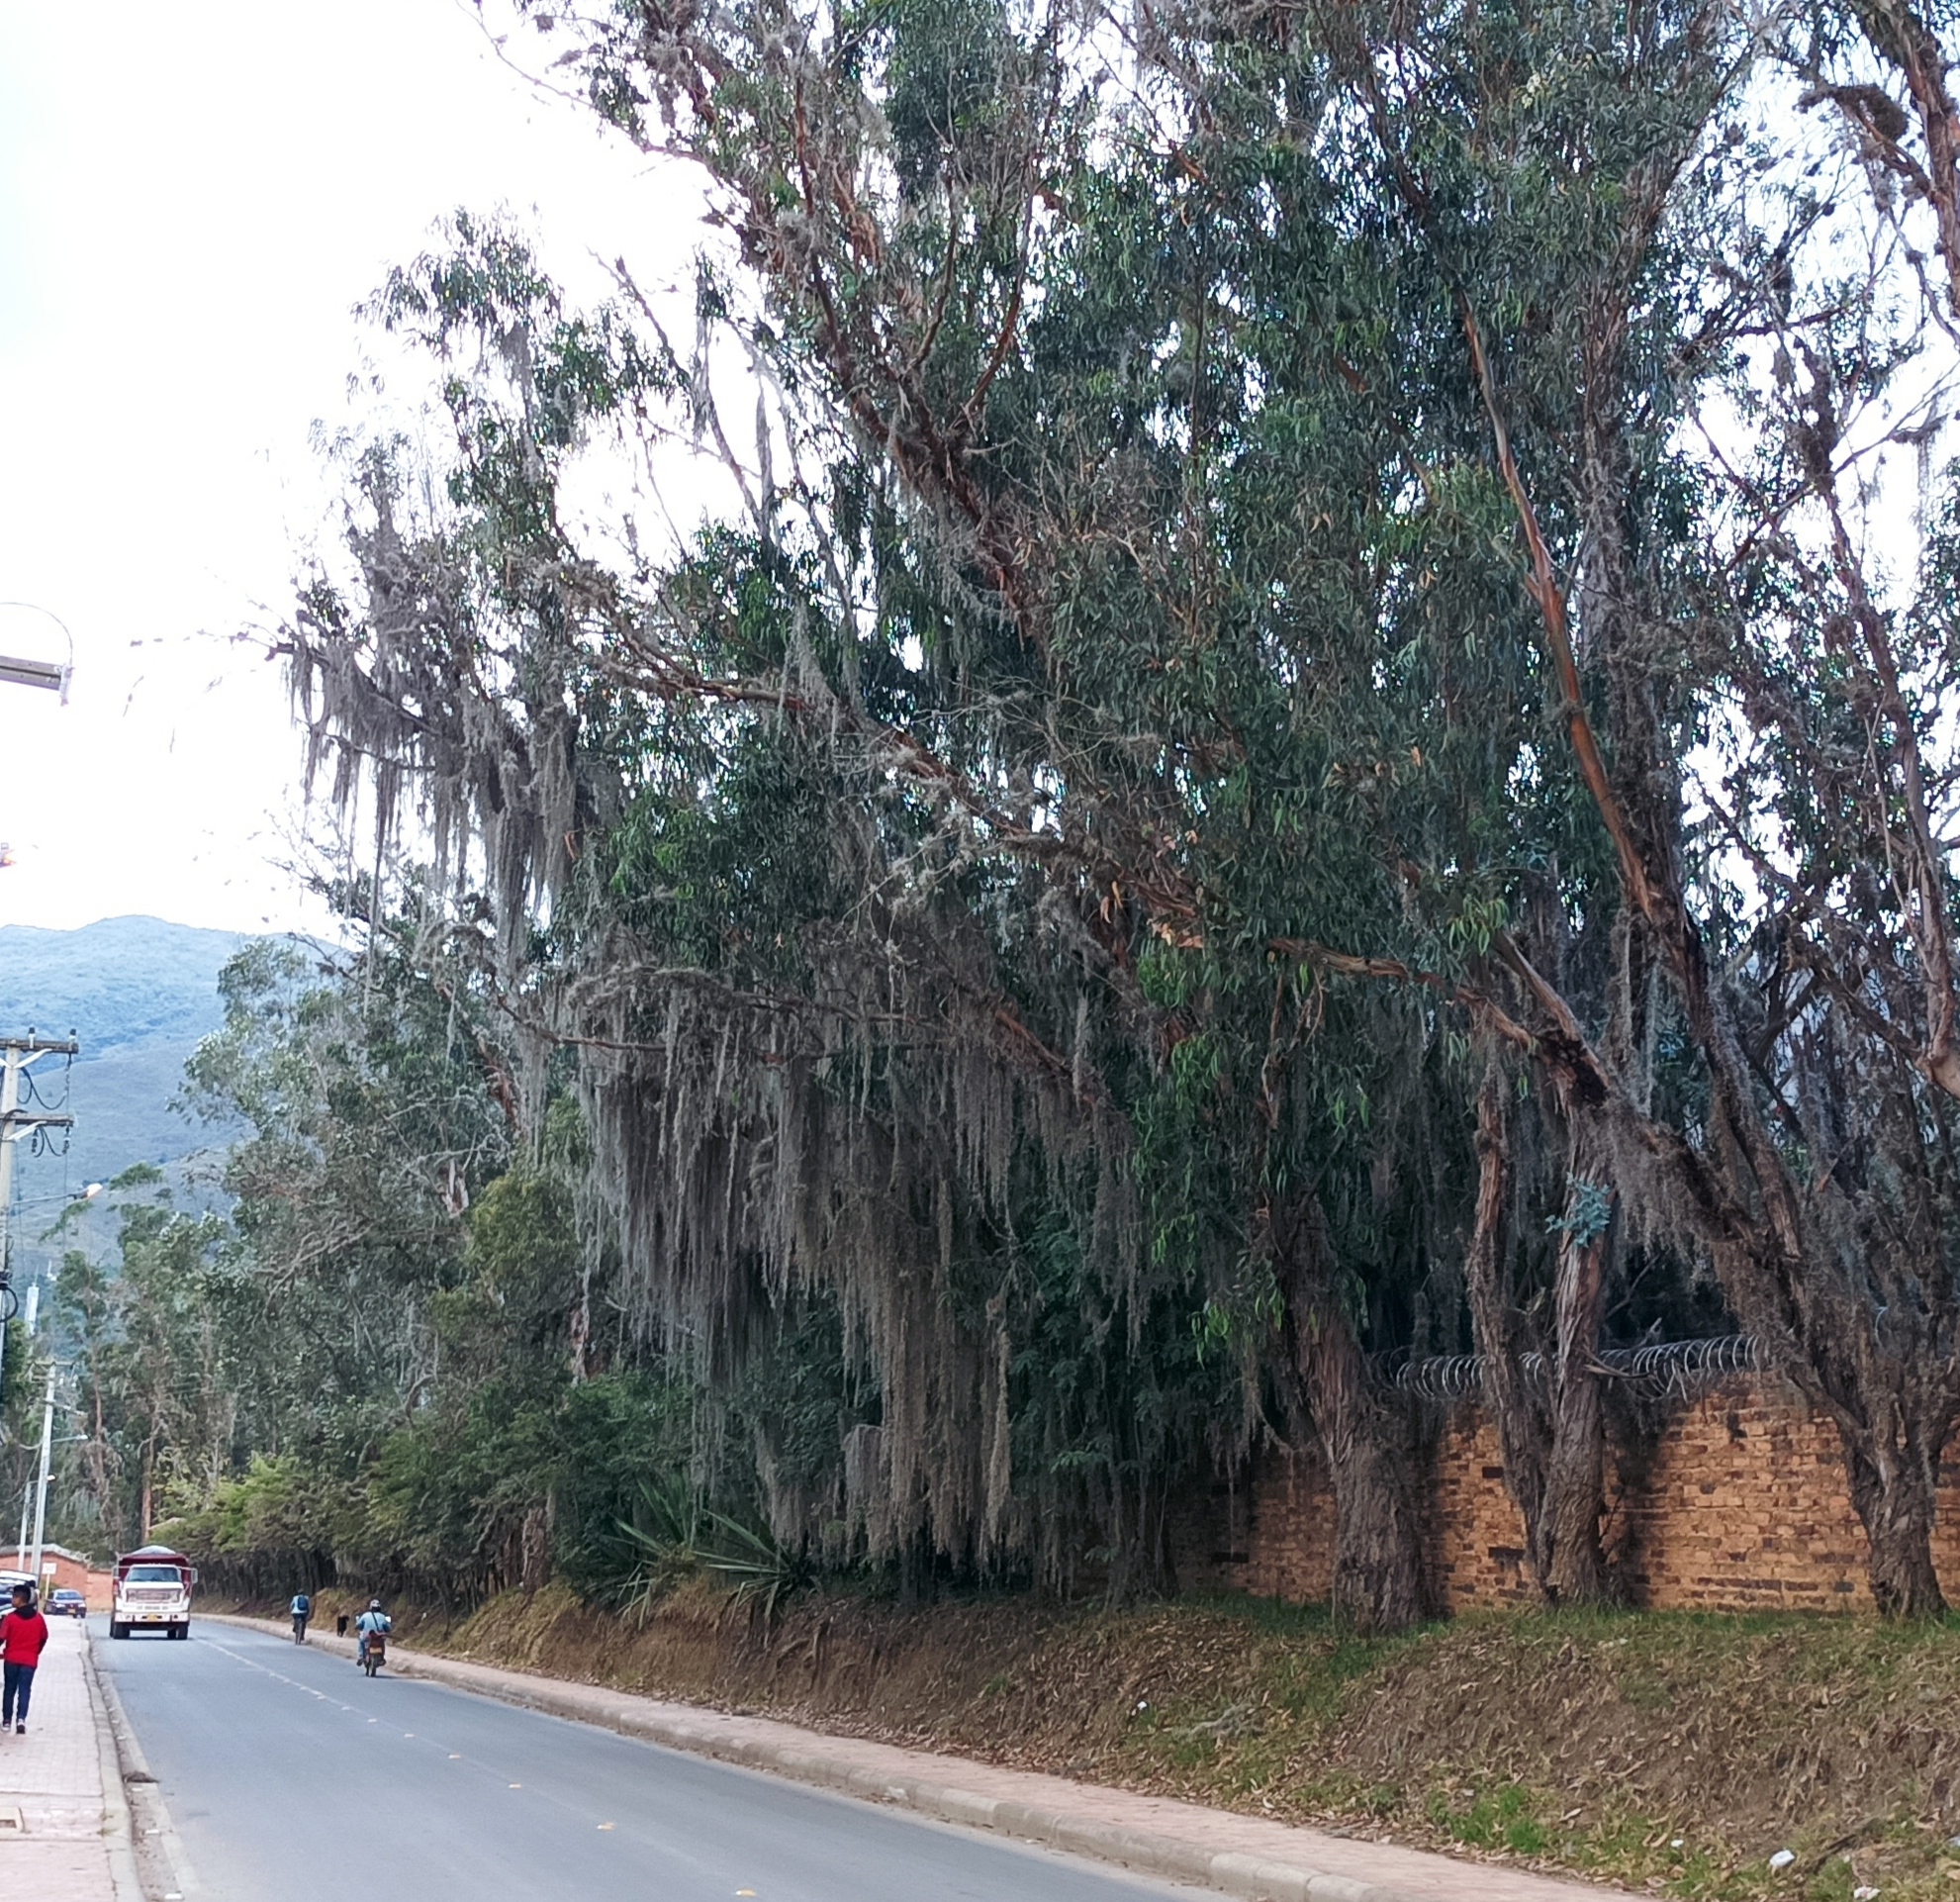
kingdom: Plantae
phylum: Tracheophyta
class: Liliopsida
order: Poales
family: Bromeliaceae
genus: Tillandsia
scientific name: Tillandsia usneoides
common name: Spanish moss
